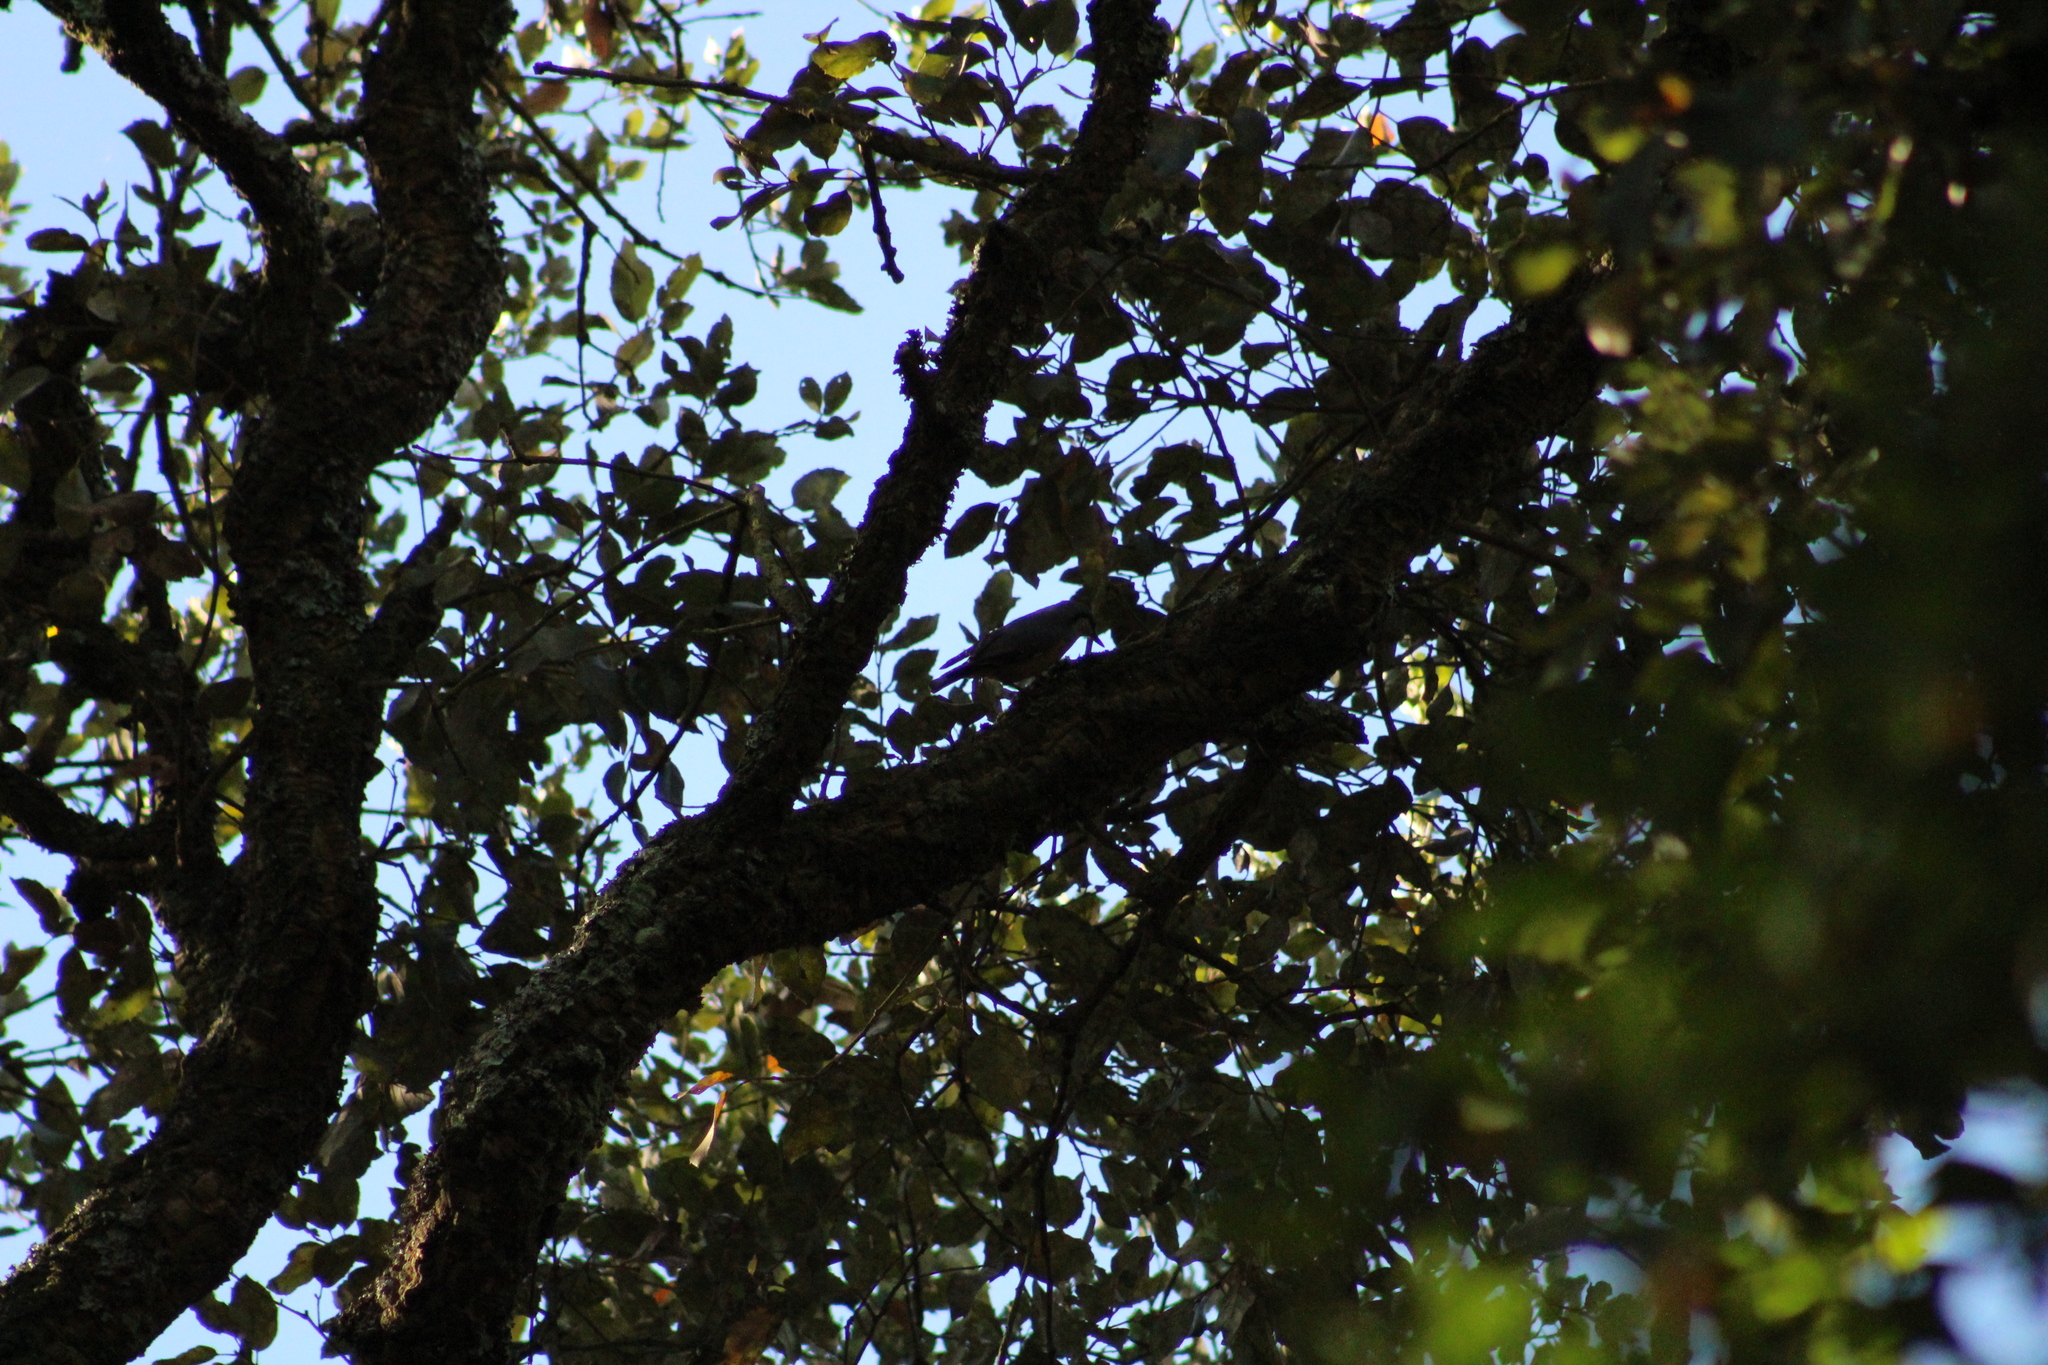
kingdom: Animalia
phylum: Chordata
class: Aves
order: Passeriformes
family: Sittidae
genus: Sitta
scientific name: Sitta europaea
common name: Eurasian nuthatch
